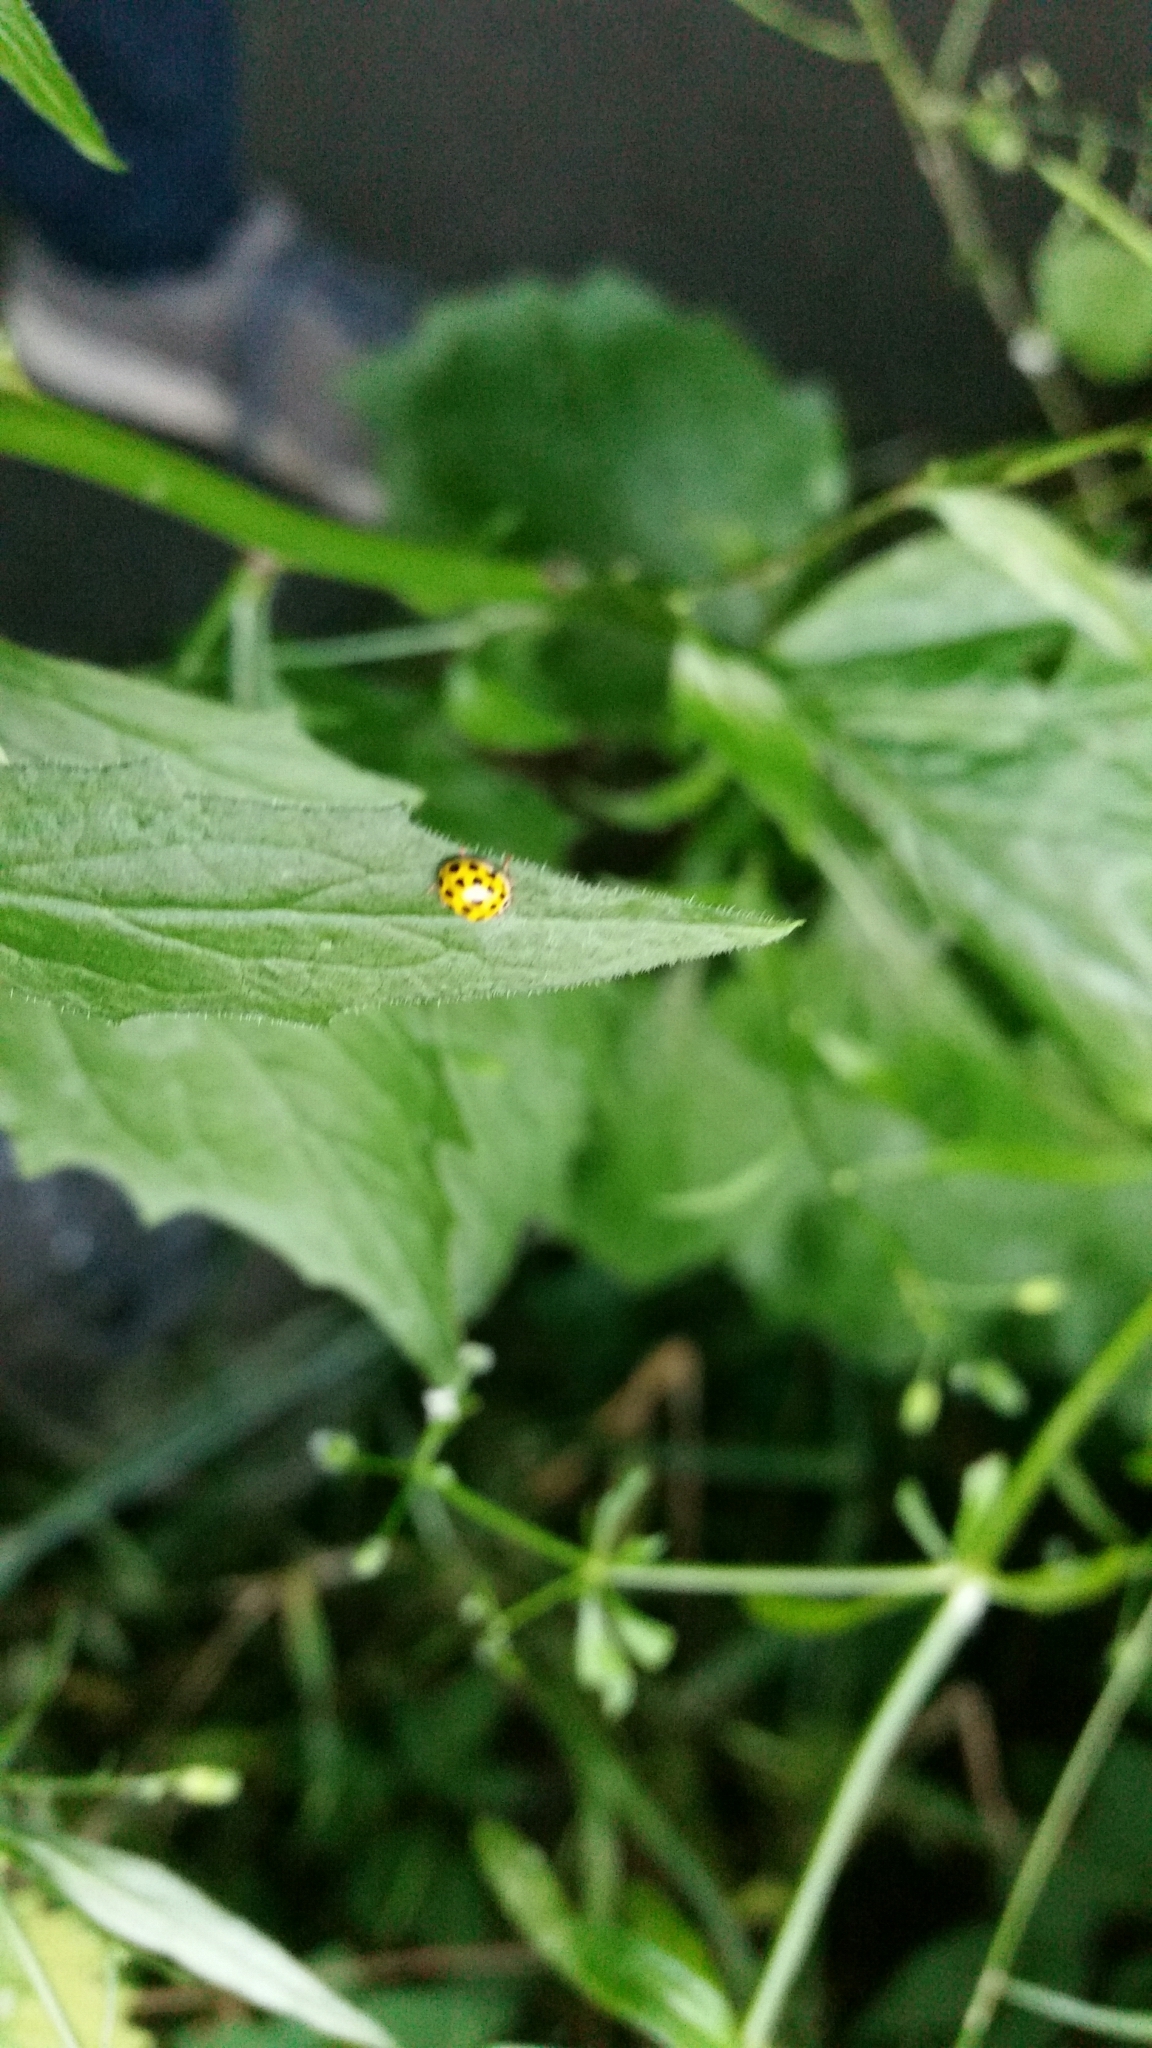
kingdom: Animalia
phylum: Arthropoda
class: Insecta
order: Coleoptera
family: Coccinellidae
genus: Psyllobora
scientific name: Psyllobora vigintiduopunctata
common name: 22-spot ladybird
